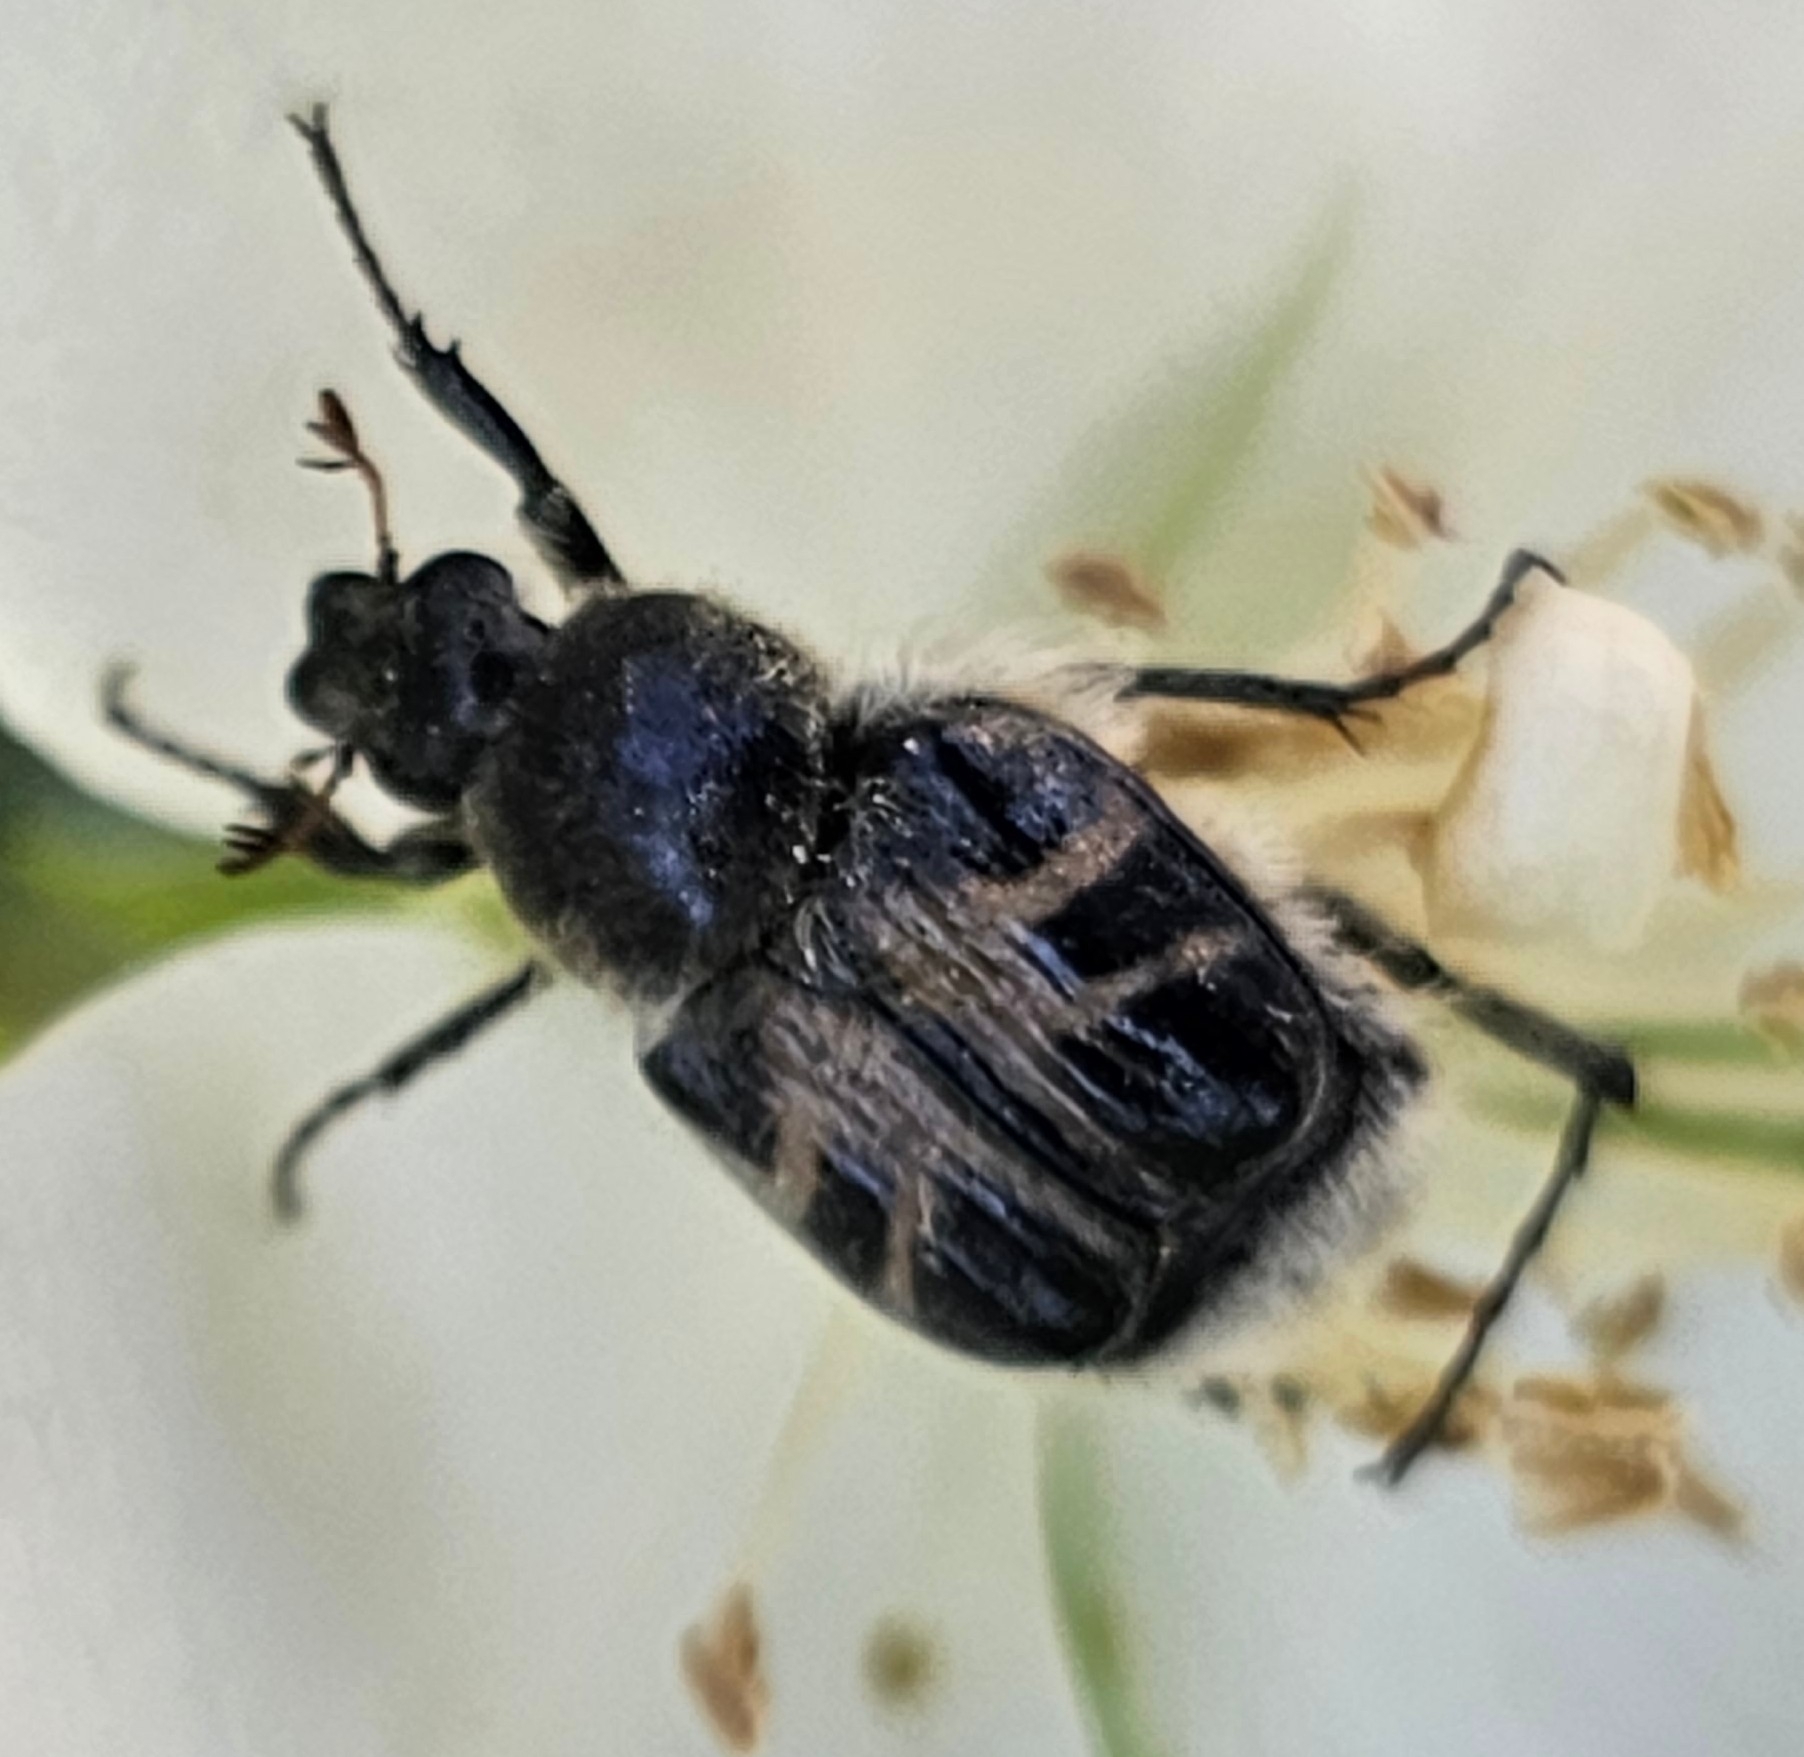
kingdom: Animalia
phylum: Arthropoda
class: Insecta
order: Coleoptera
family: Scarabaeidae
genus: Trichiotinus
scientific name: Trichiotinus assimilis
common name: Bee-mimic beetle
